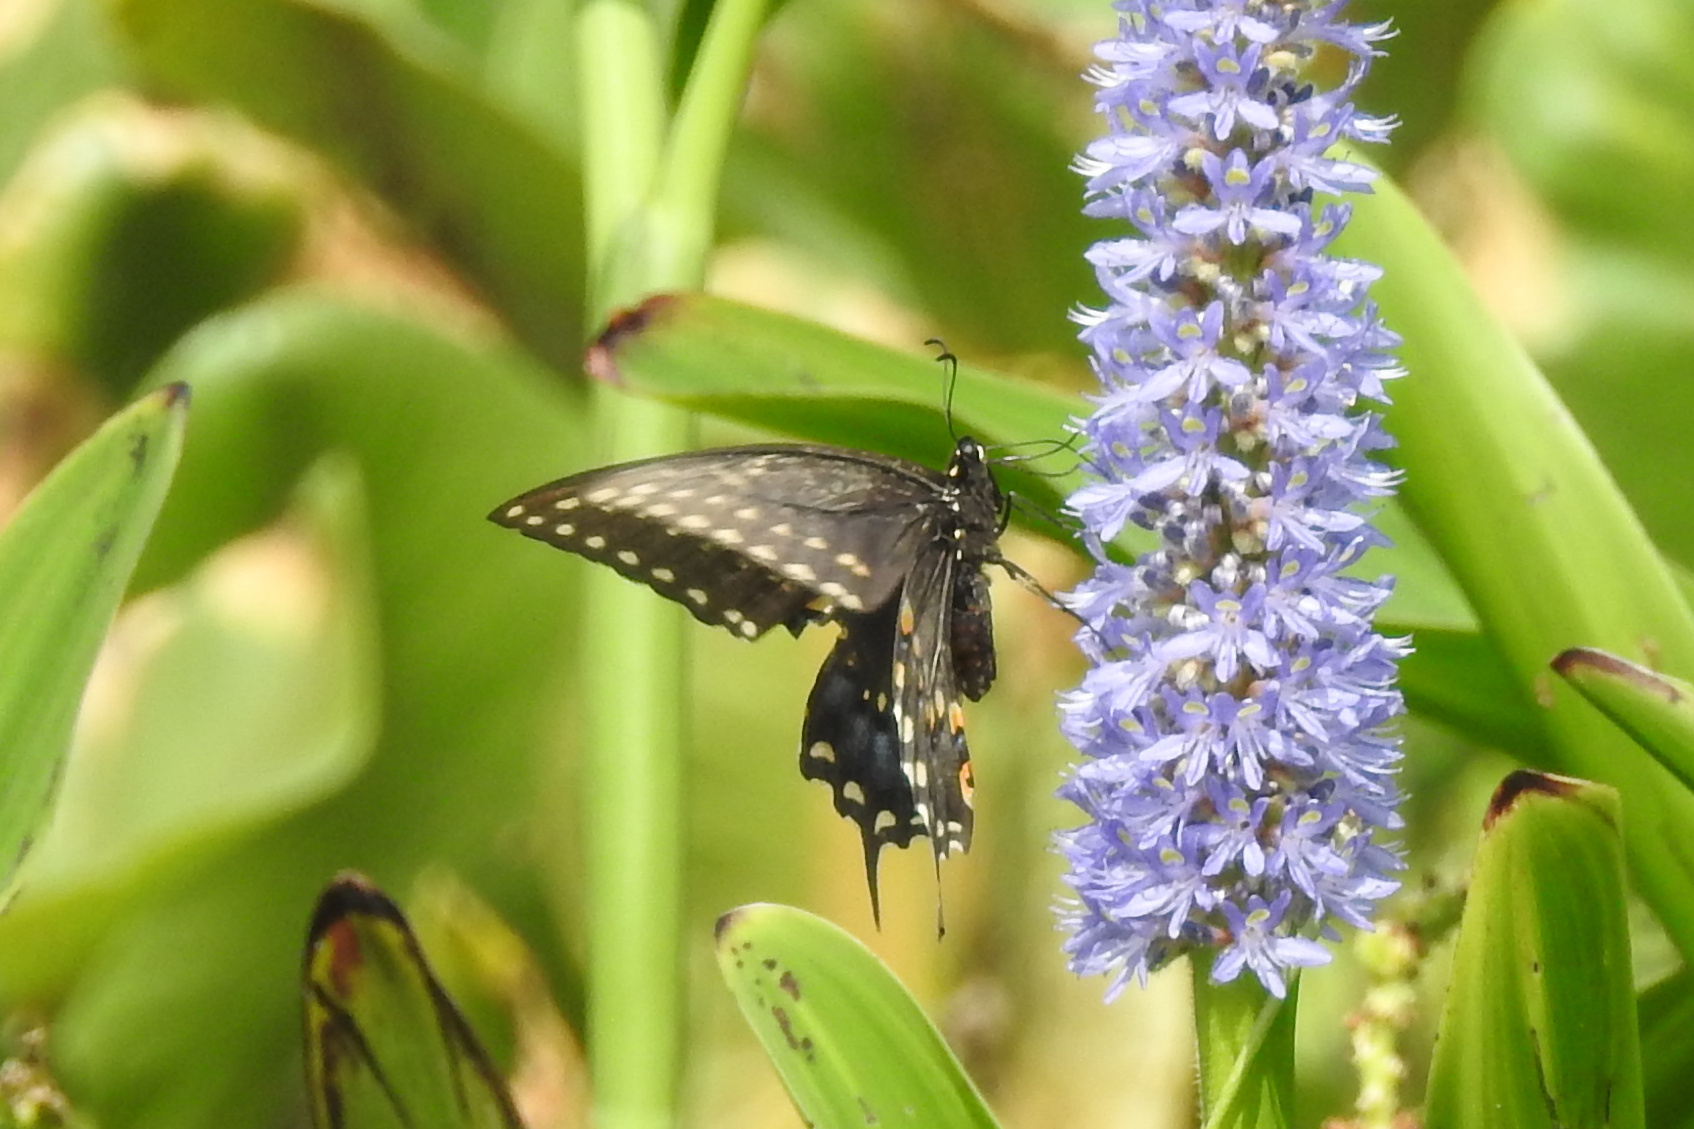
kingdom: Animalia
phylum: Arthropoda
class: Insecta
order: Lepidoptera
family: Papilionidae
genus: Papilio
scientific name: Papilio polyxenes
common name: Black swallowtail
